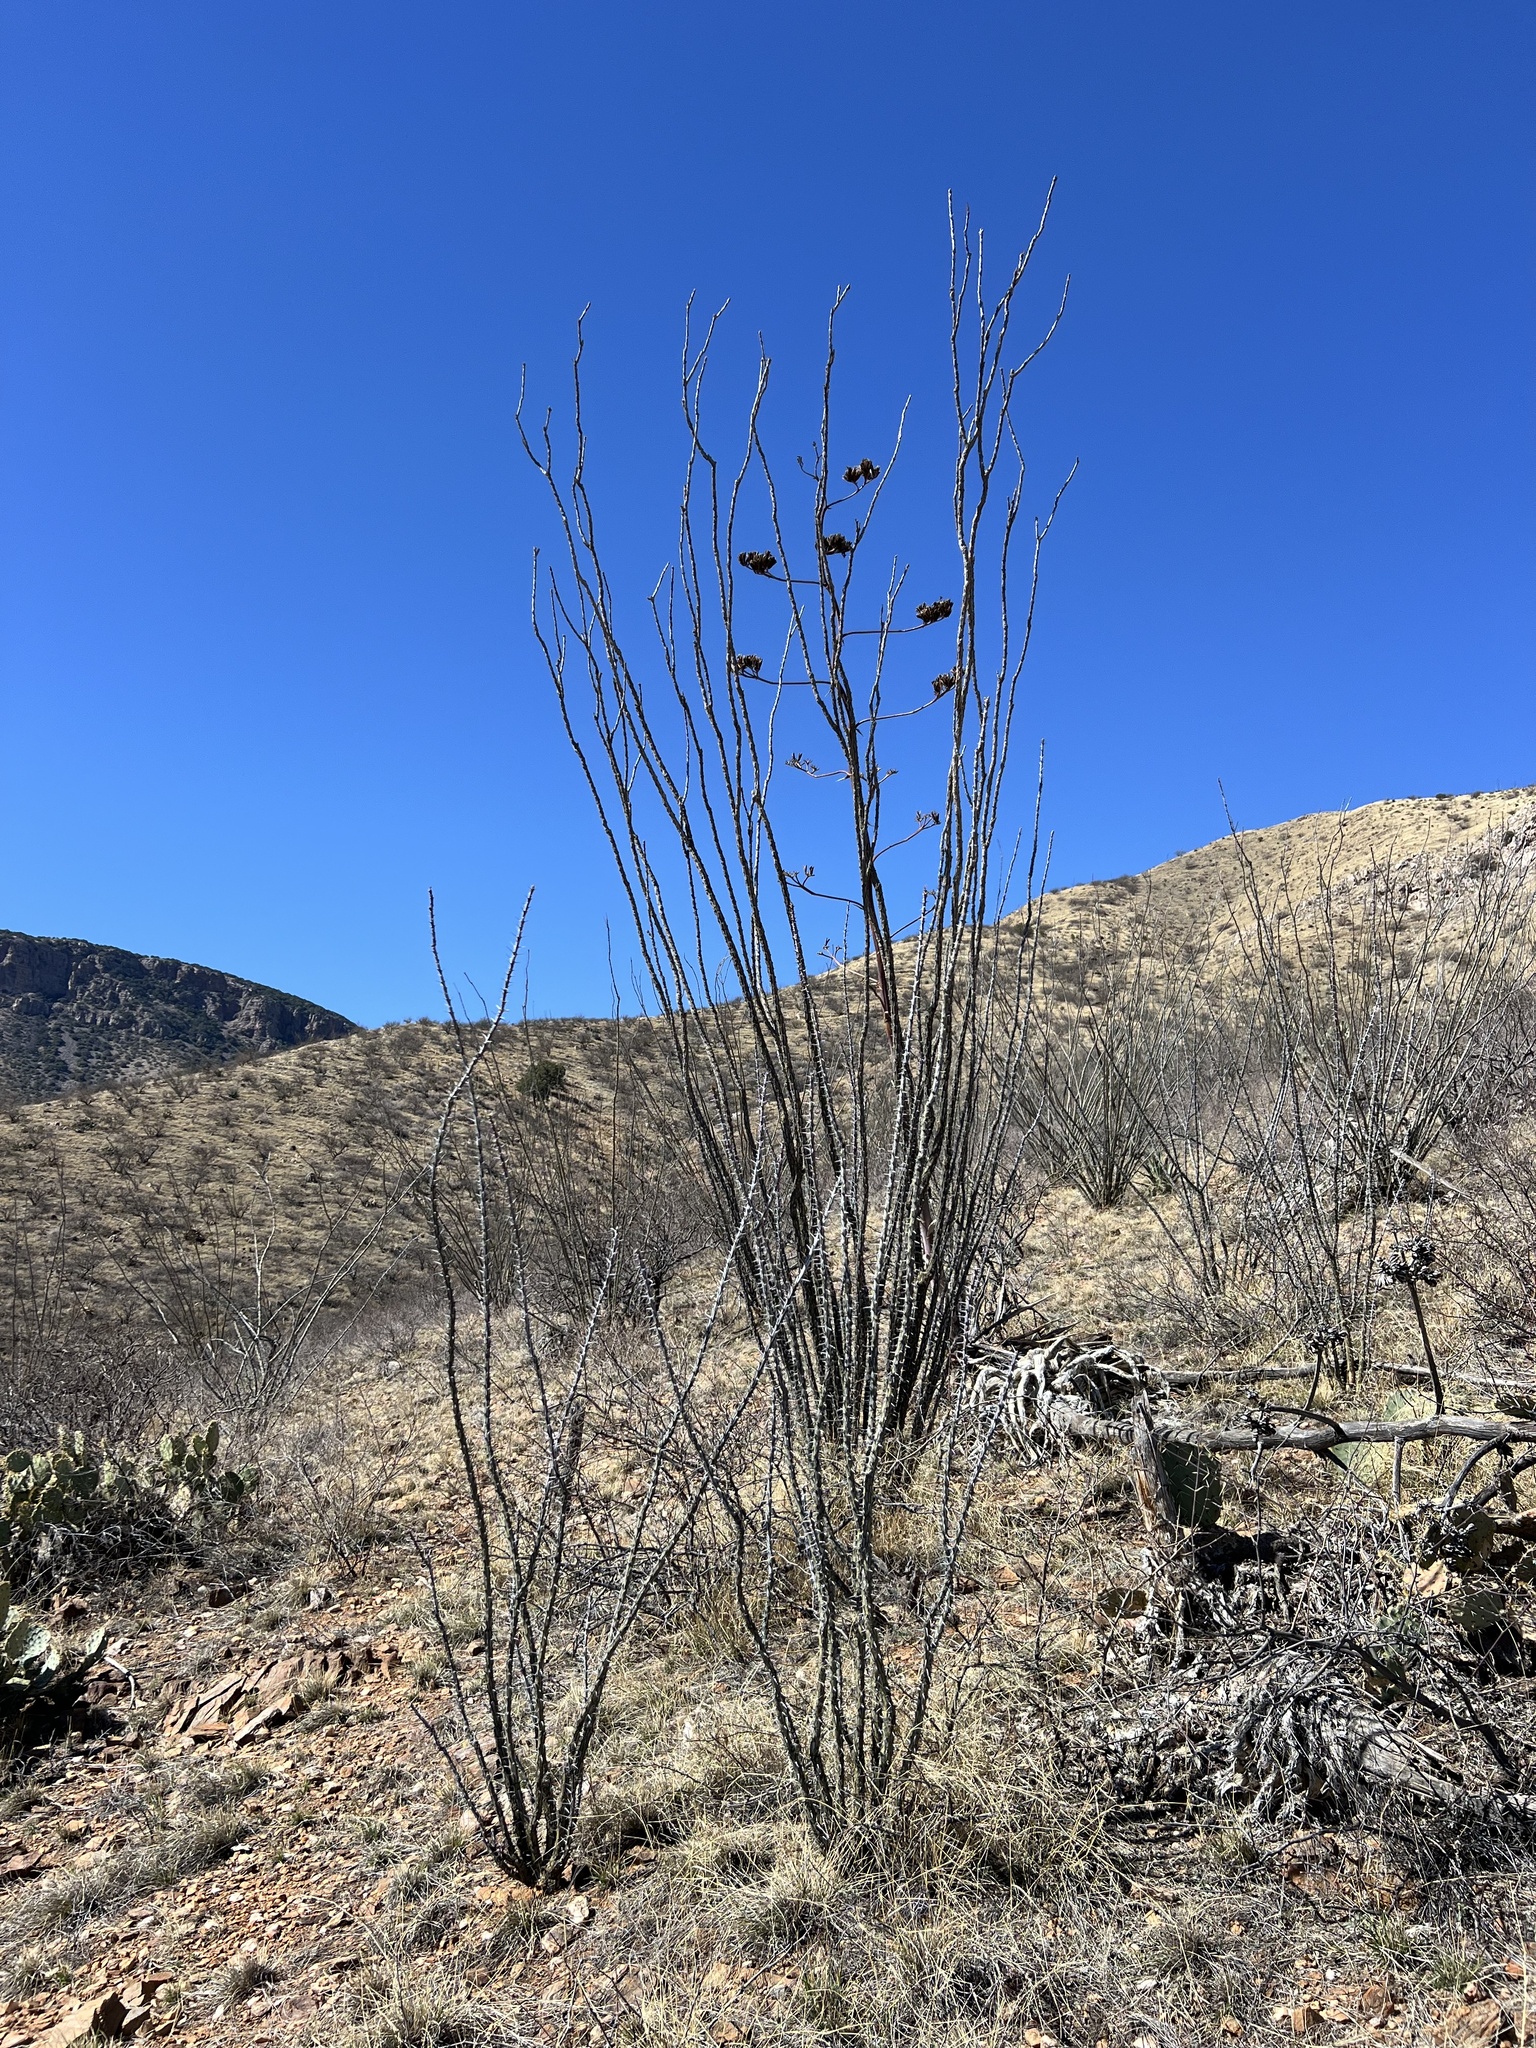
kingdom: Plantae
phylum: Tracheophyta
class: Magnoliopsida
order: Ericales
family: Fouquieriaceae
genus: Fouquieria
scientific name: Fouquieria splendens
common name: Vine-cactus
